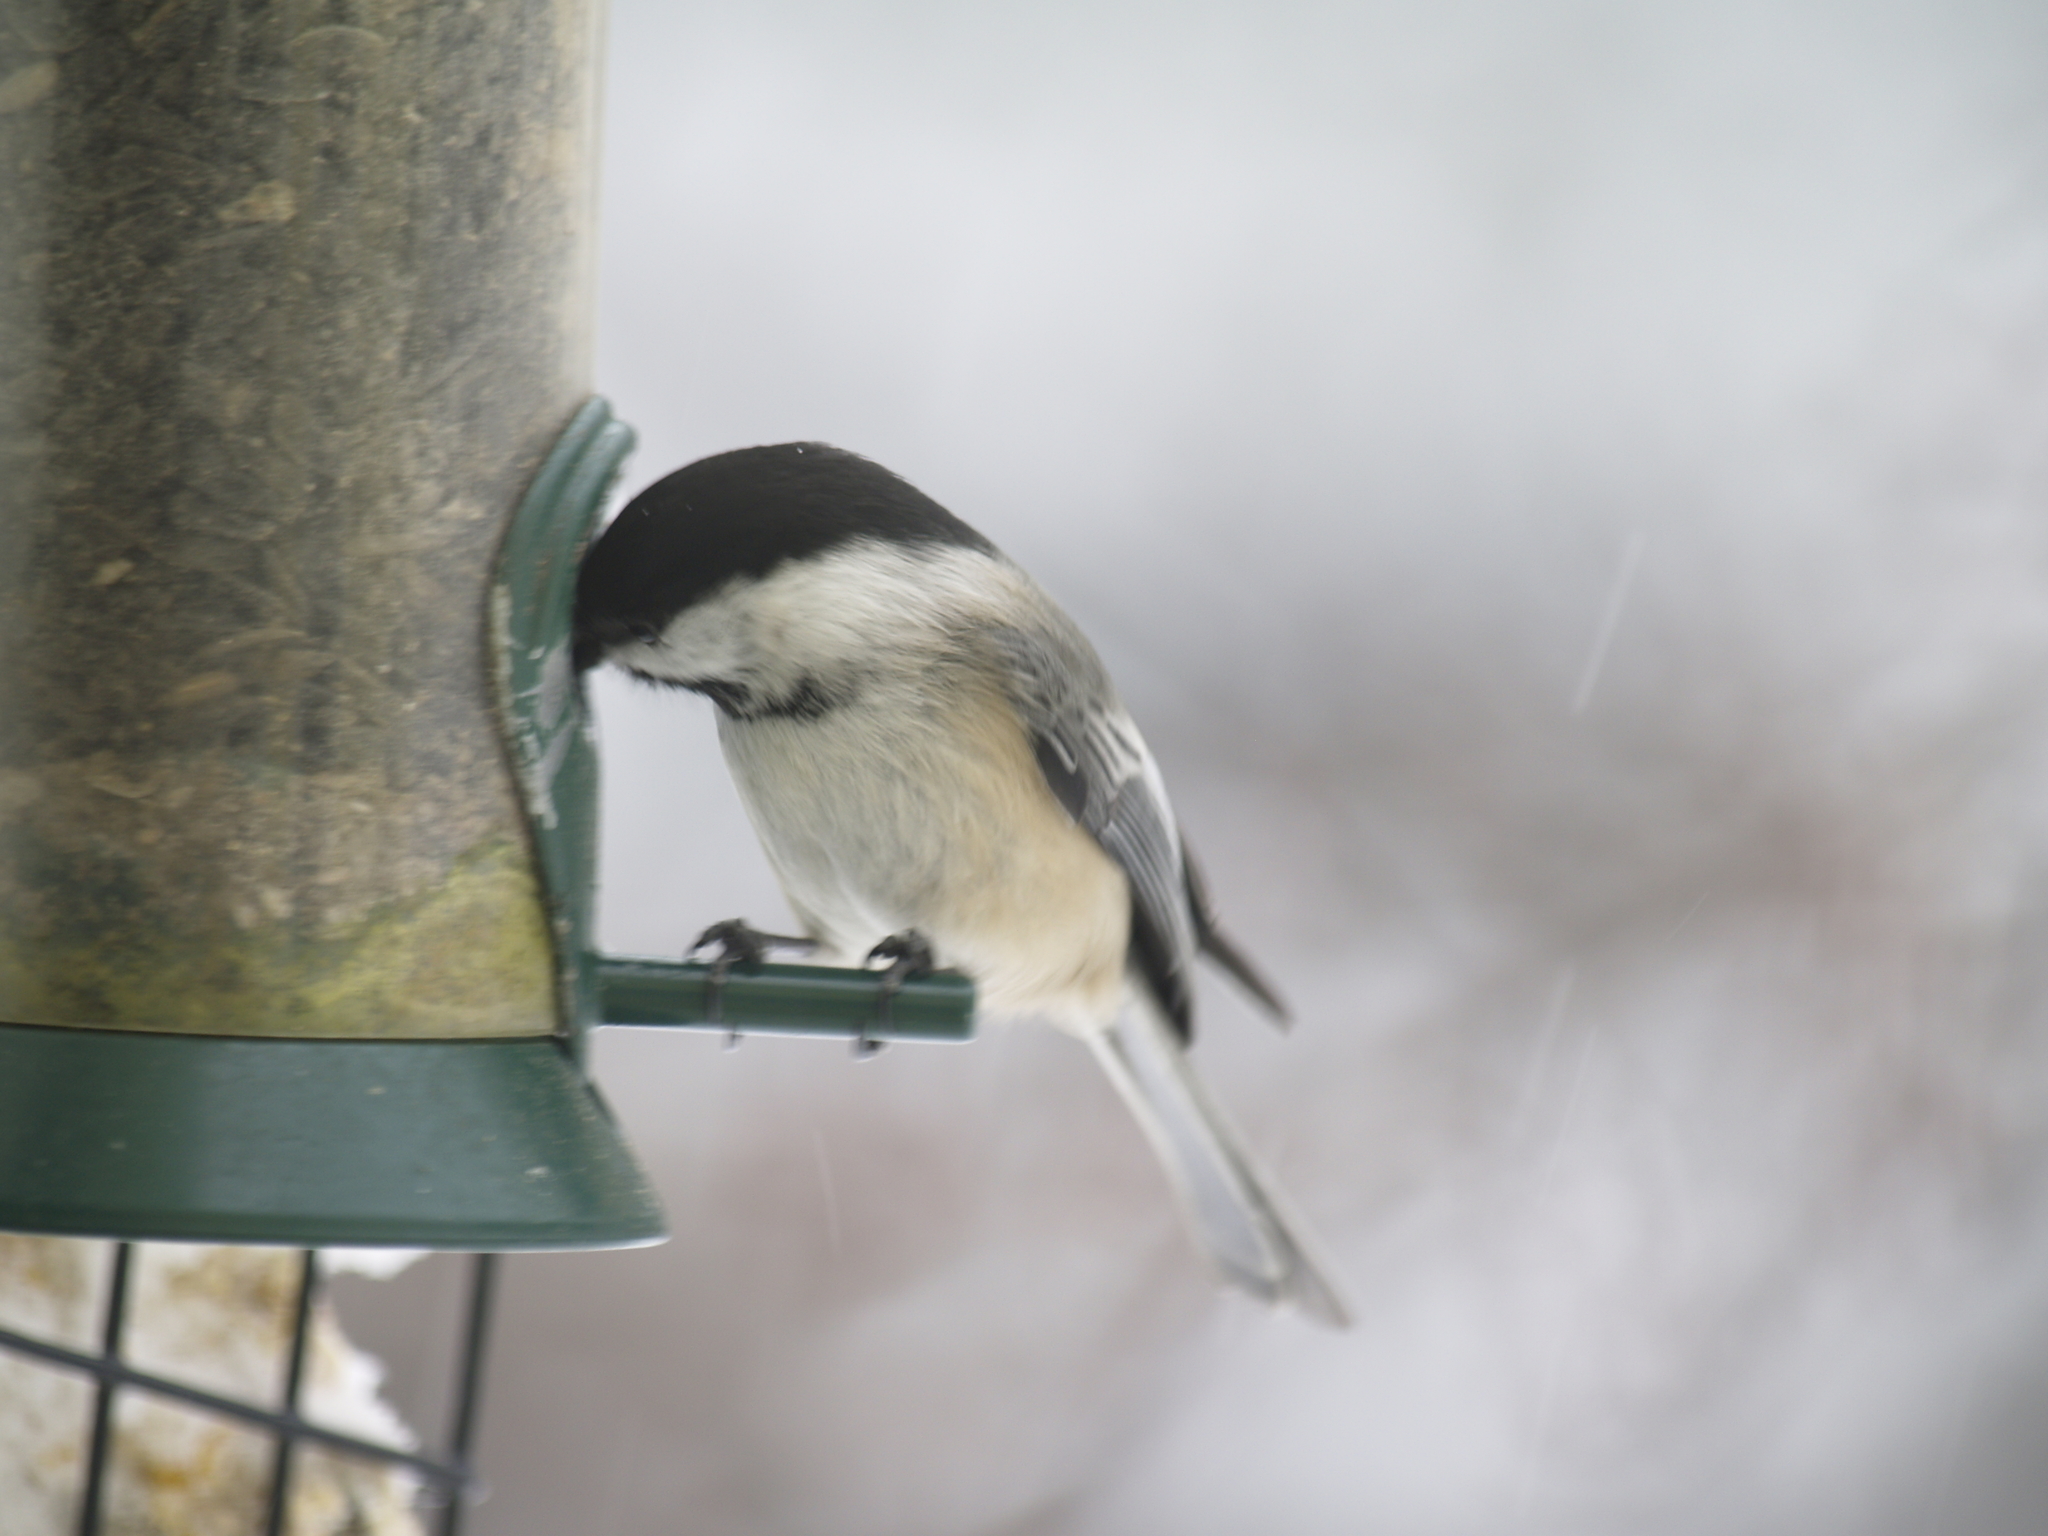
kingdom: Animalia
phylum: Chordata
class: Aves
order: Passeriformes
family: Paridae
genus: Poecile
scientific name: Poecile atricapillus
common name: Black-capped chickadee
